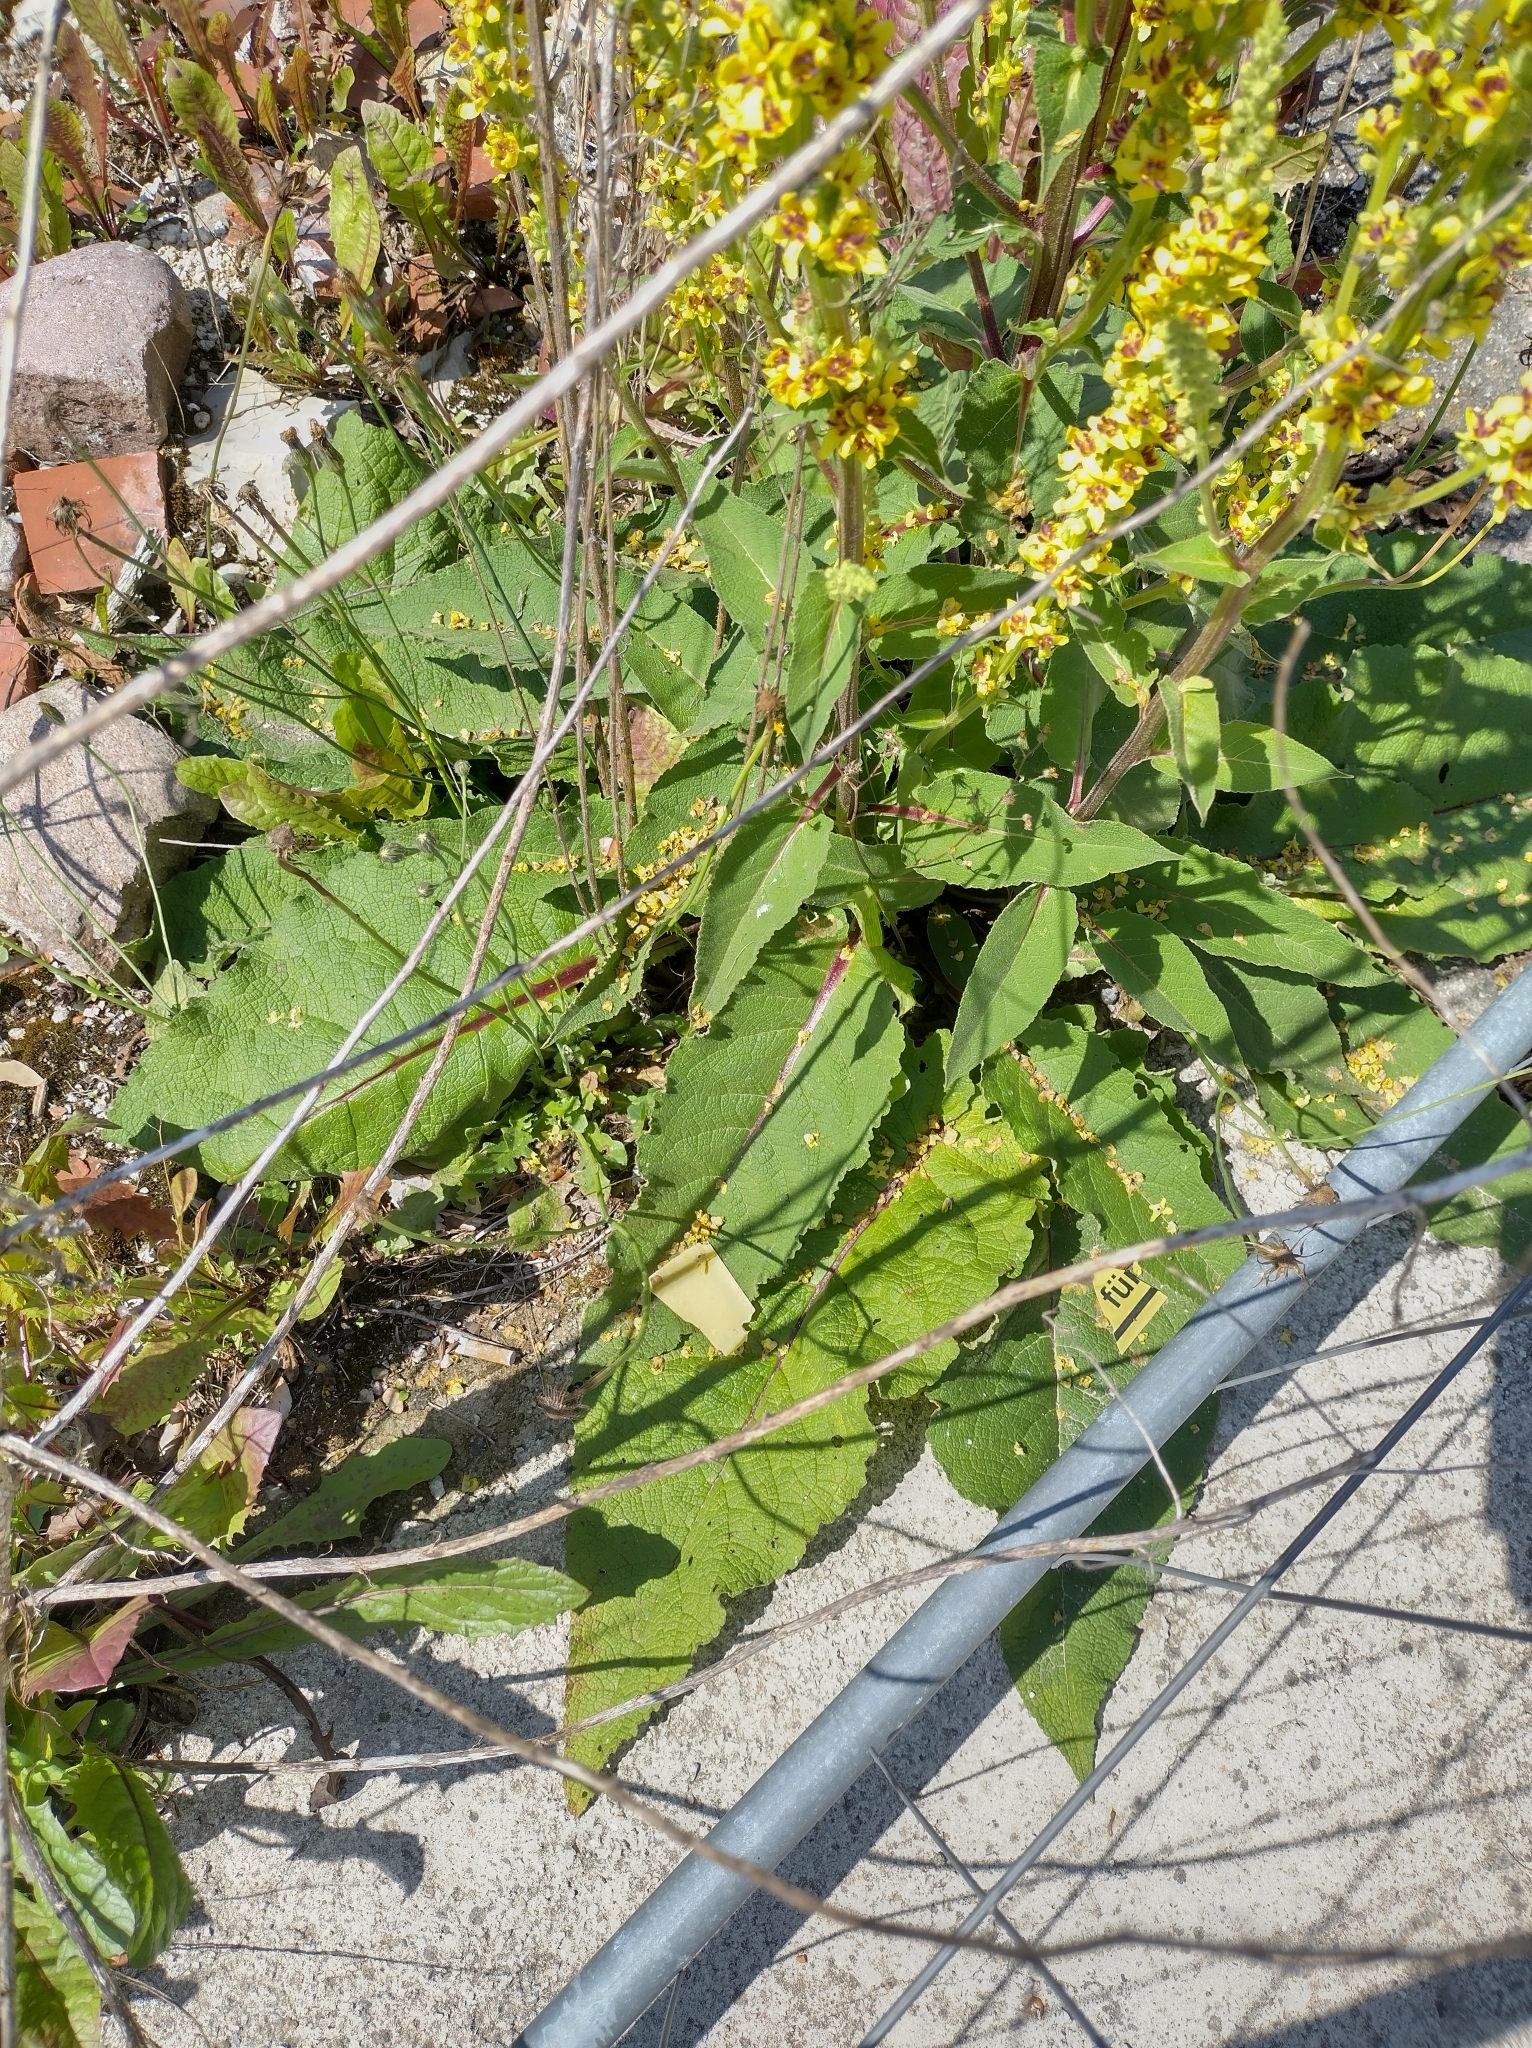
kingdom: Plantae
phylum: Tracheophyta
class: Magnoliopsida
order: Lamiales
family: Scrophulariaceae
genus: Verbascum
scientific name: Verbascum nigrum
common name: Dark mullein
